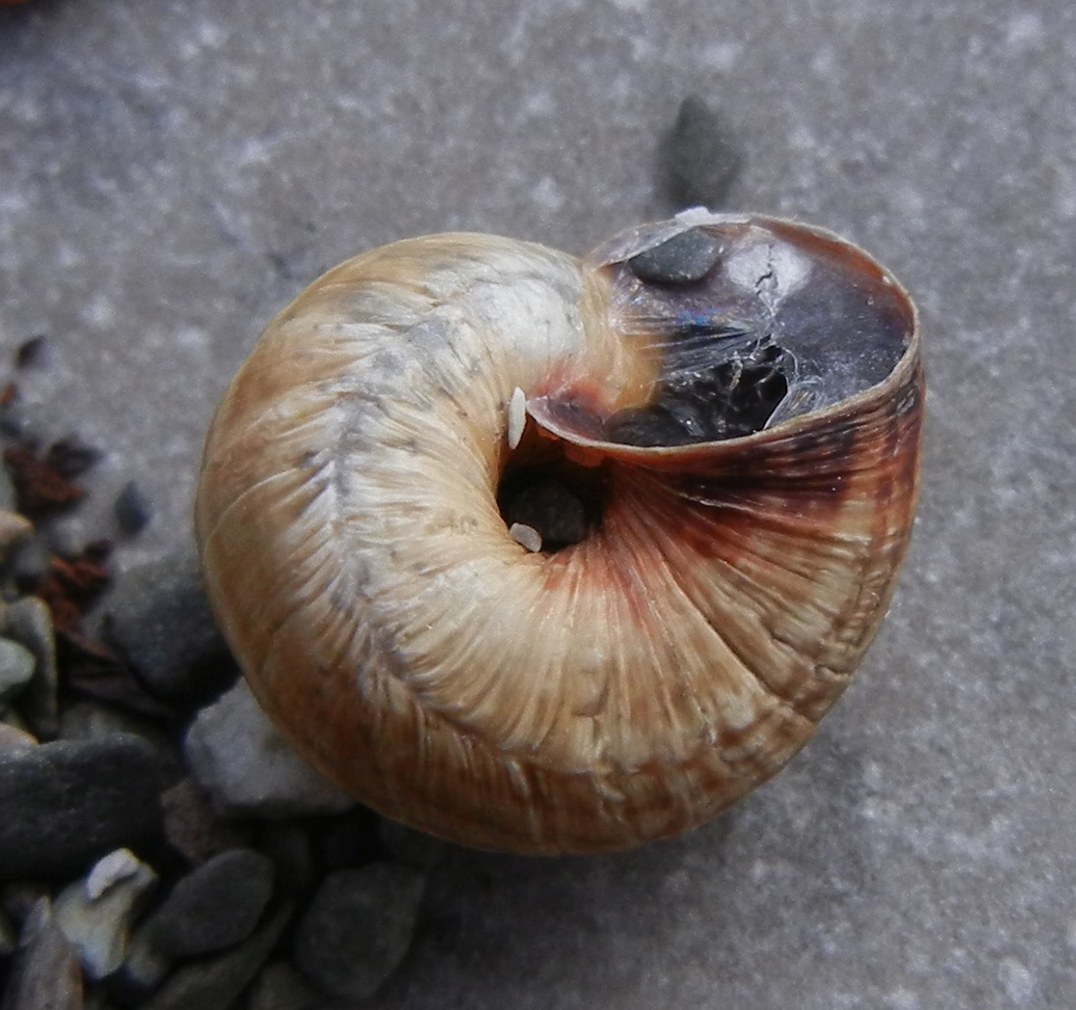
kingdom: Animalia
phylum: Mollusca
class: Gastropoda
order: Stylommatophora
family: Geomitridae
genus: Cernuella
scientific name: Cernuella virgata
